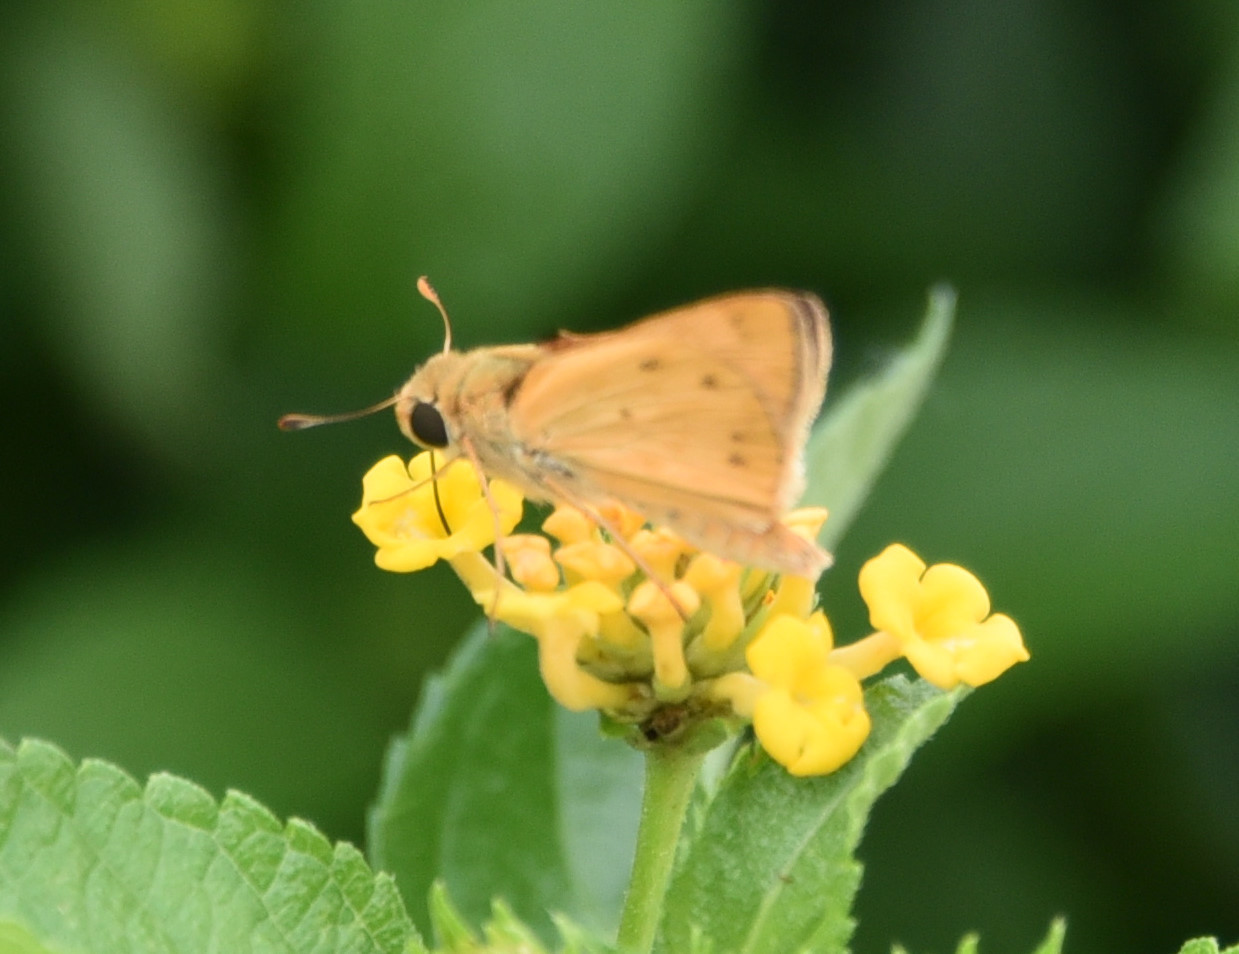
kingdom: Animalia
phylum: Arthropoda
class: Insecta
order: Lepidoptera
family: Hesperiidae
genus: Hylephila
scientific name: Hylephila phyleus
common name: Fiery skipper
